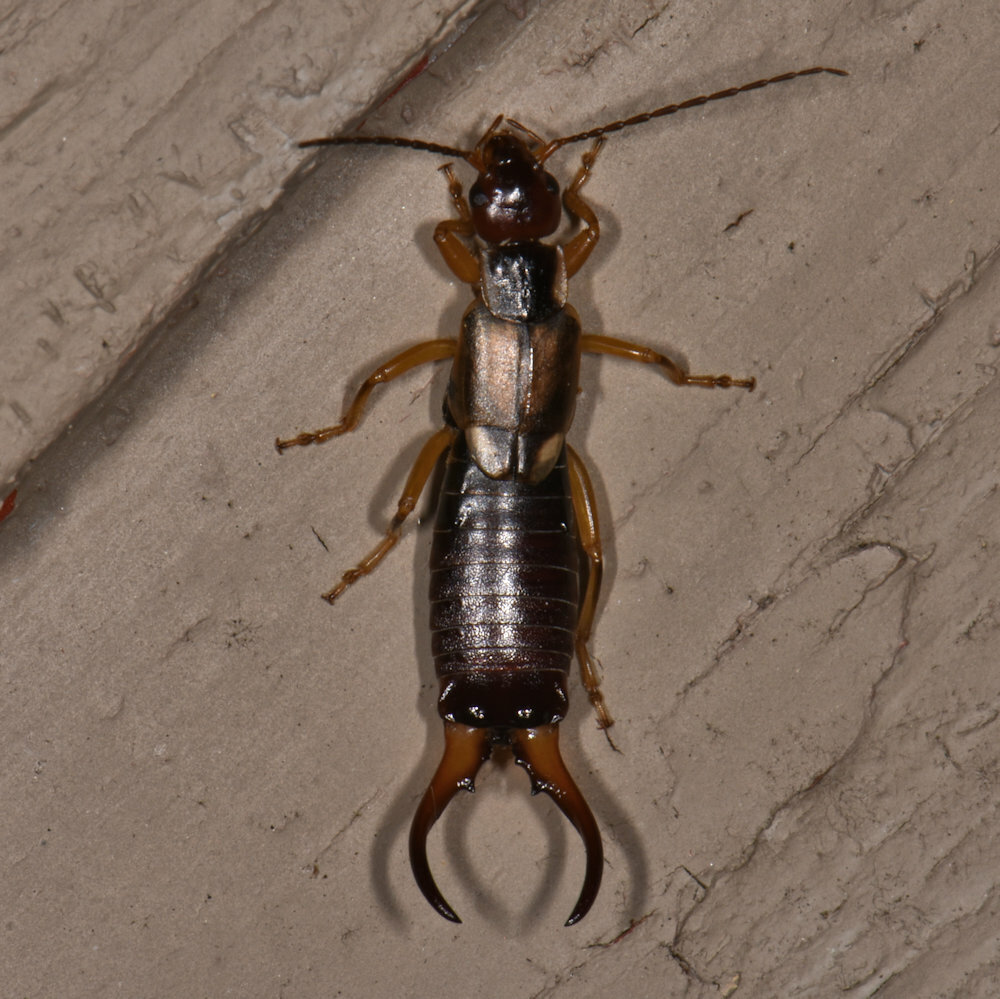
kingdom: Animalia
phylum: Arthropoda
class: Insecta
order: Dermaptera
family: Forficulidae
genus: Forficula
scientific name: Forficula
